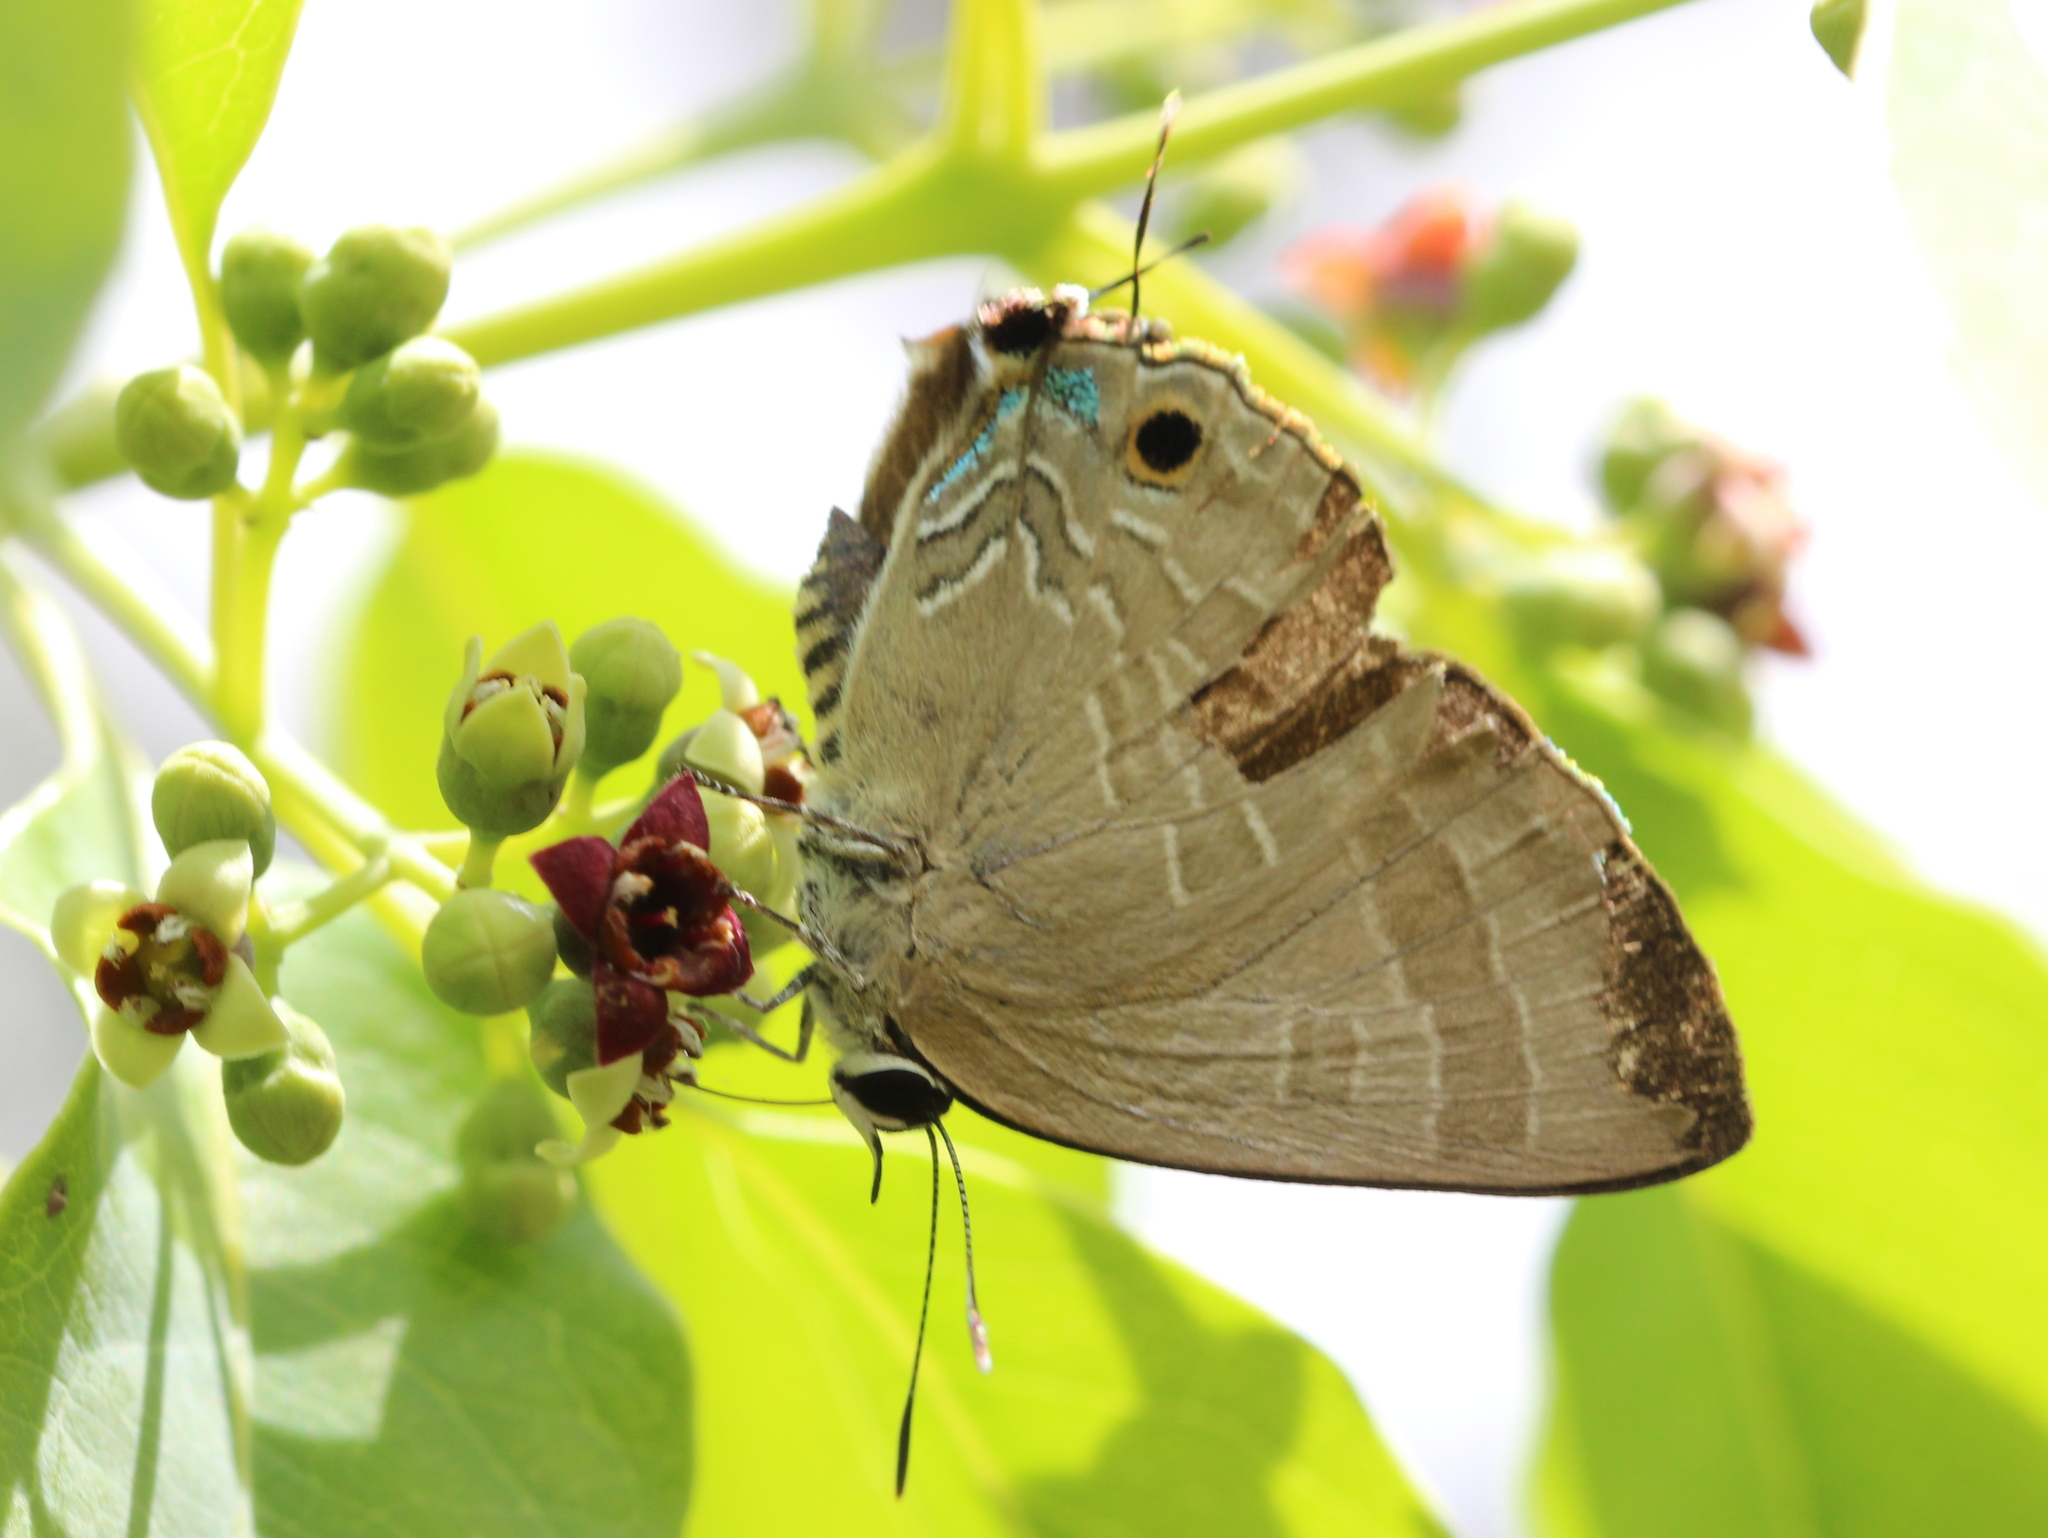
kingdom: Animalia
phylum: Arthropoda
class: Insecta
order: Lepidoptera
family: Lycaenidae
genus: Deudorix
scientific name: Deudorix epijarbas
